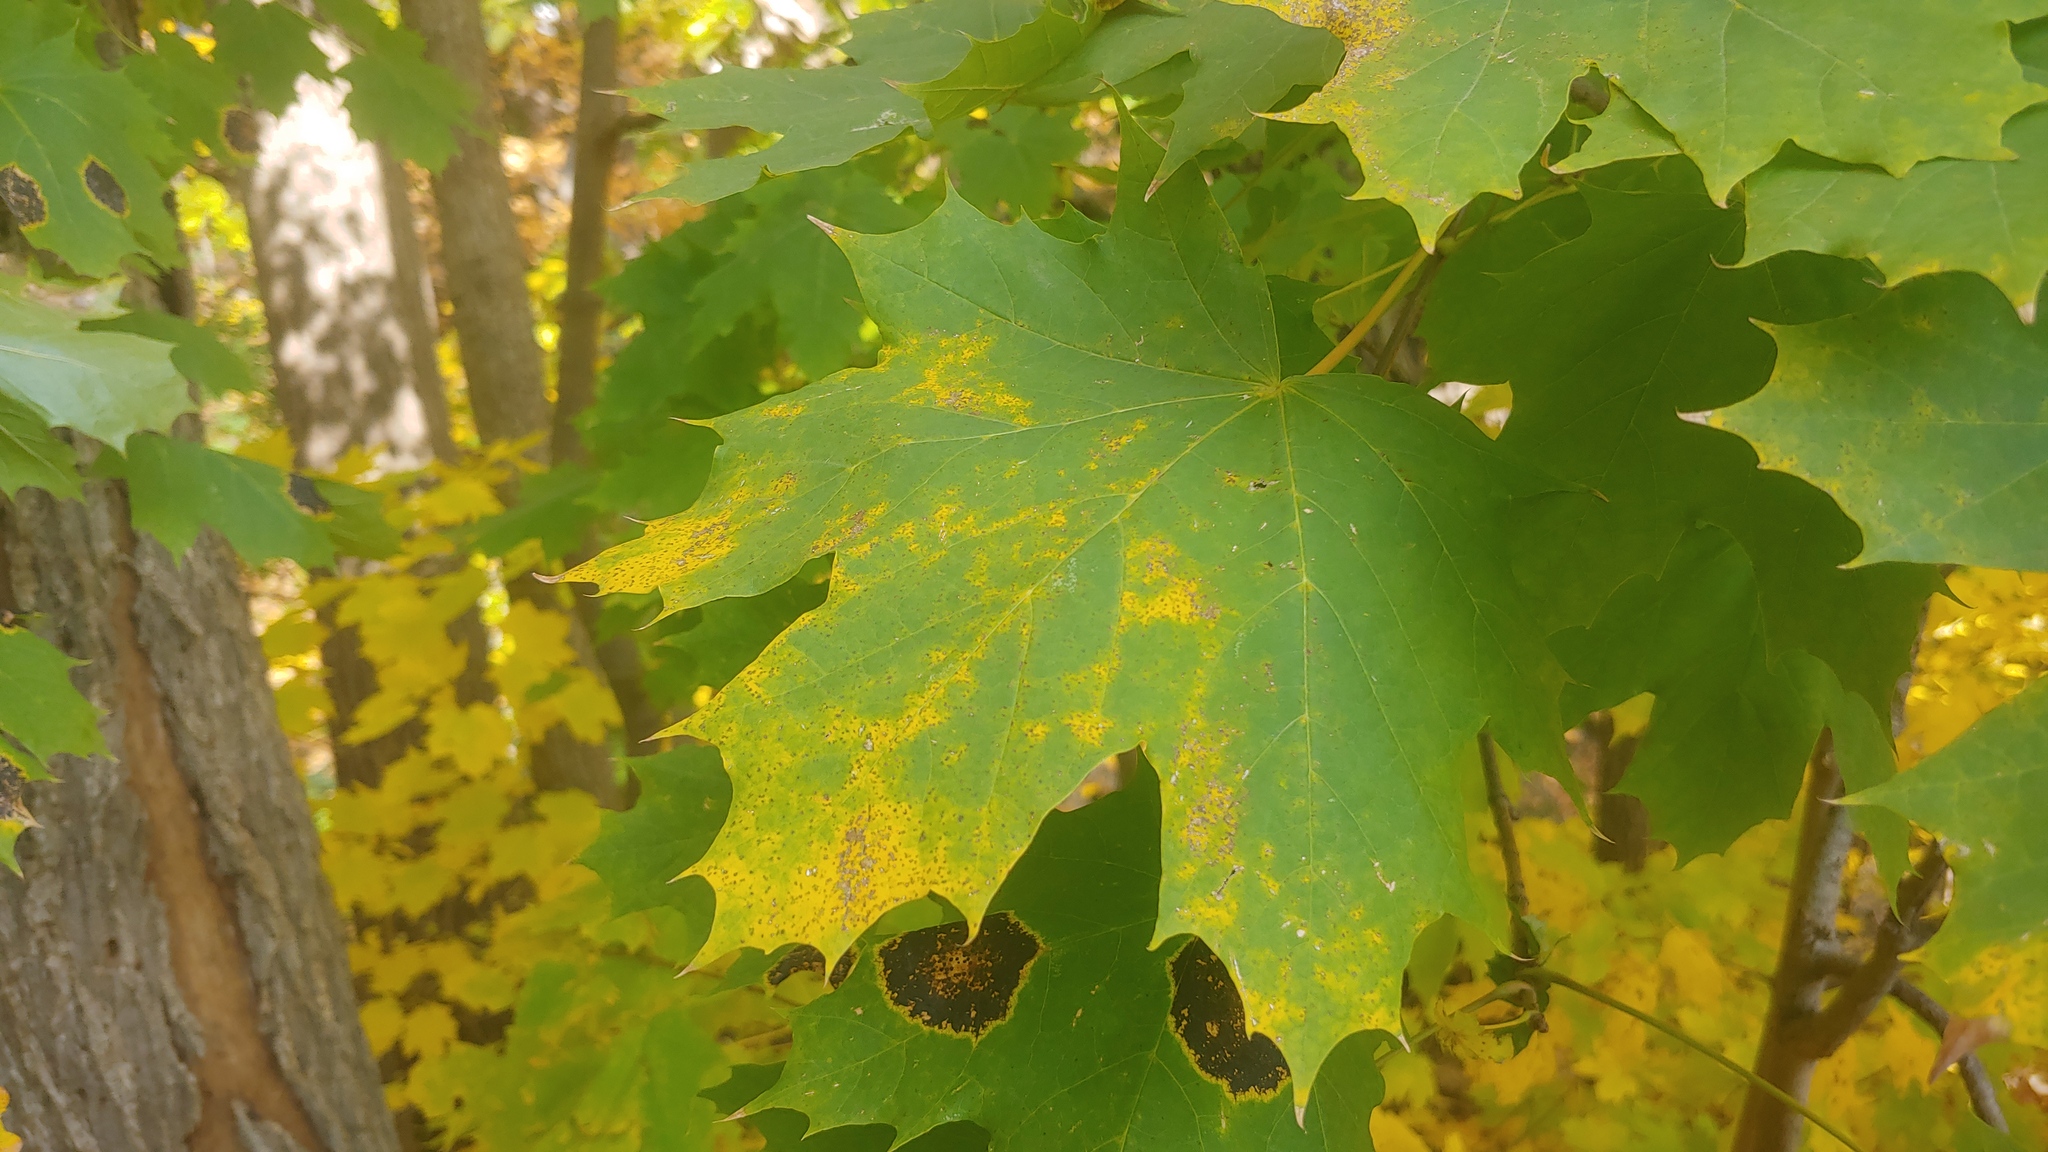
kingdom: Plantae
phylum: Tracheophyta
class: Magnoliopsida
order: Sapindales
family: Sapindaceae
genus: Acer
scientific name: Acer platanoides
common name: Norway maple
